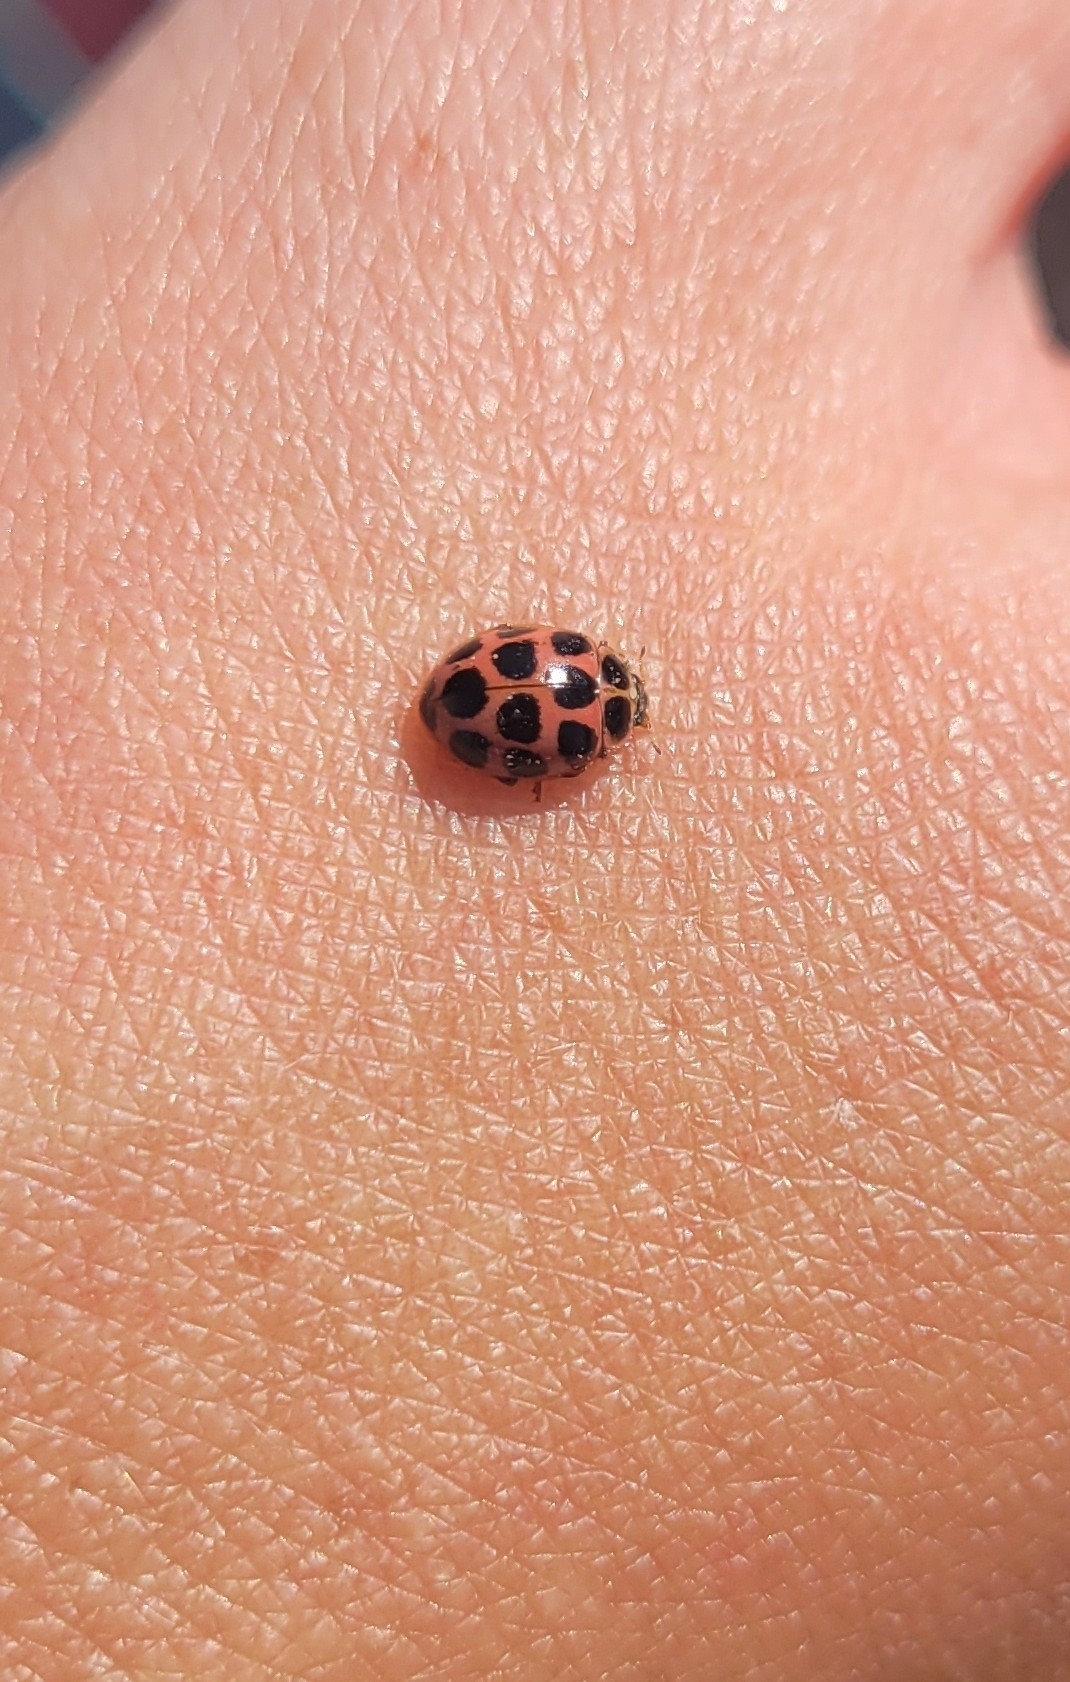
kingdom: Animalia
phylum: Arthropoda
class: Insecta
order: Coleoptera
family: Coccinellidae
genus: Calvia
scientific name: Calvia quatuordecimguttata
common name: Cream-spot ladybird
